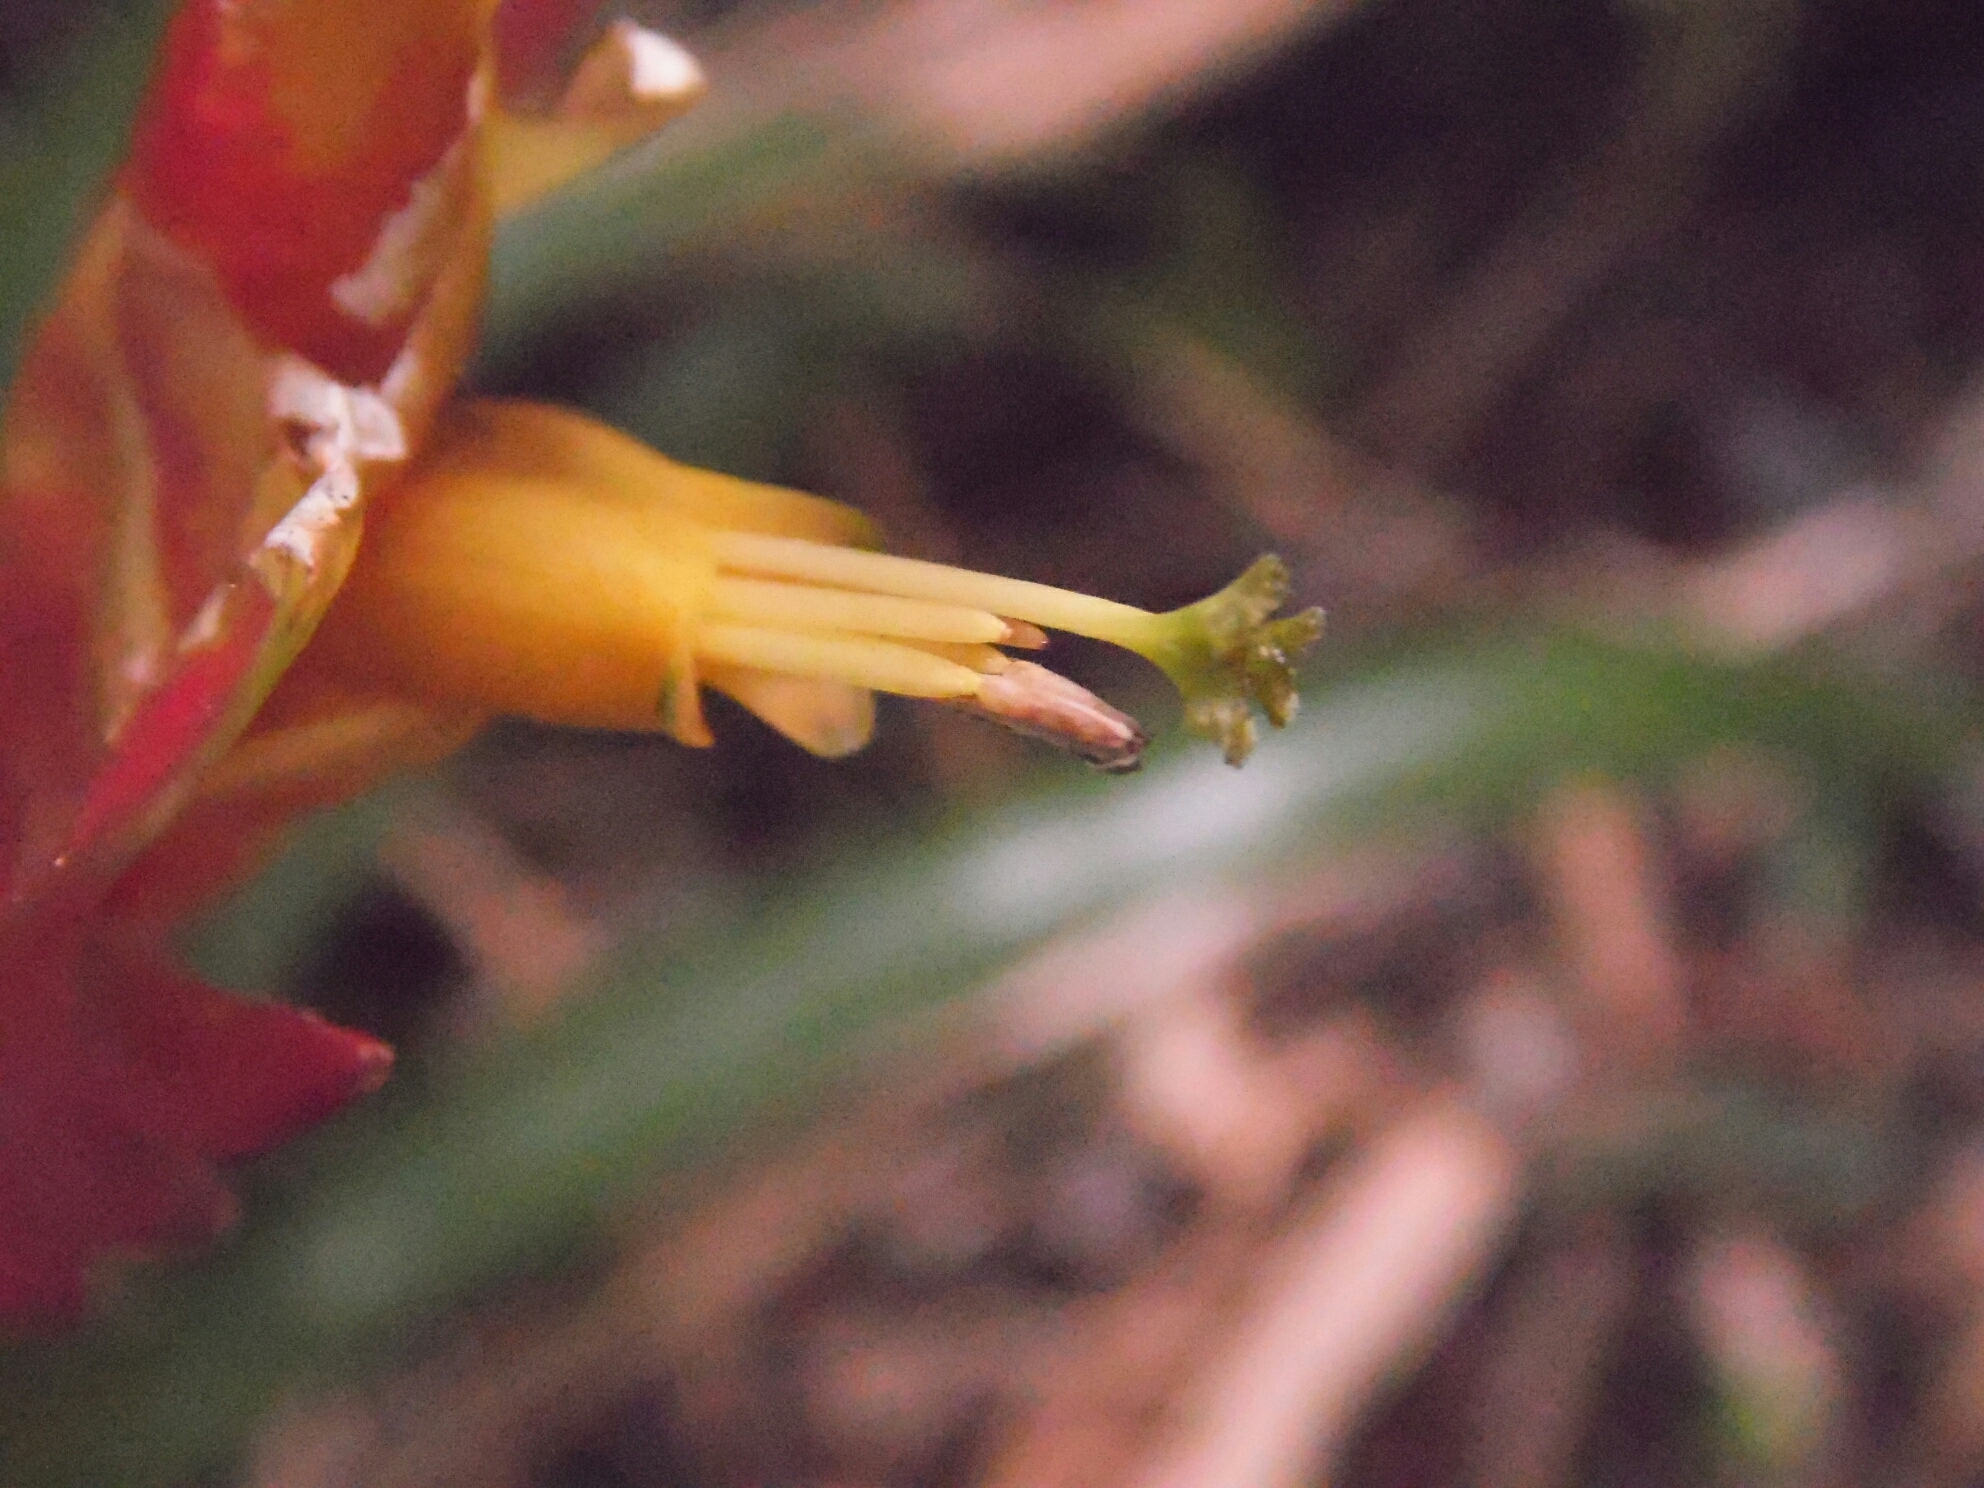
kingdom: Plantae
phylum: Tracheophyta
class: Liliopsida
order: Poales
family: Bromeliaceae
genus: Vriesea
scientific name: Vriesea incurvata
